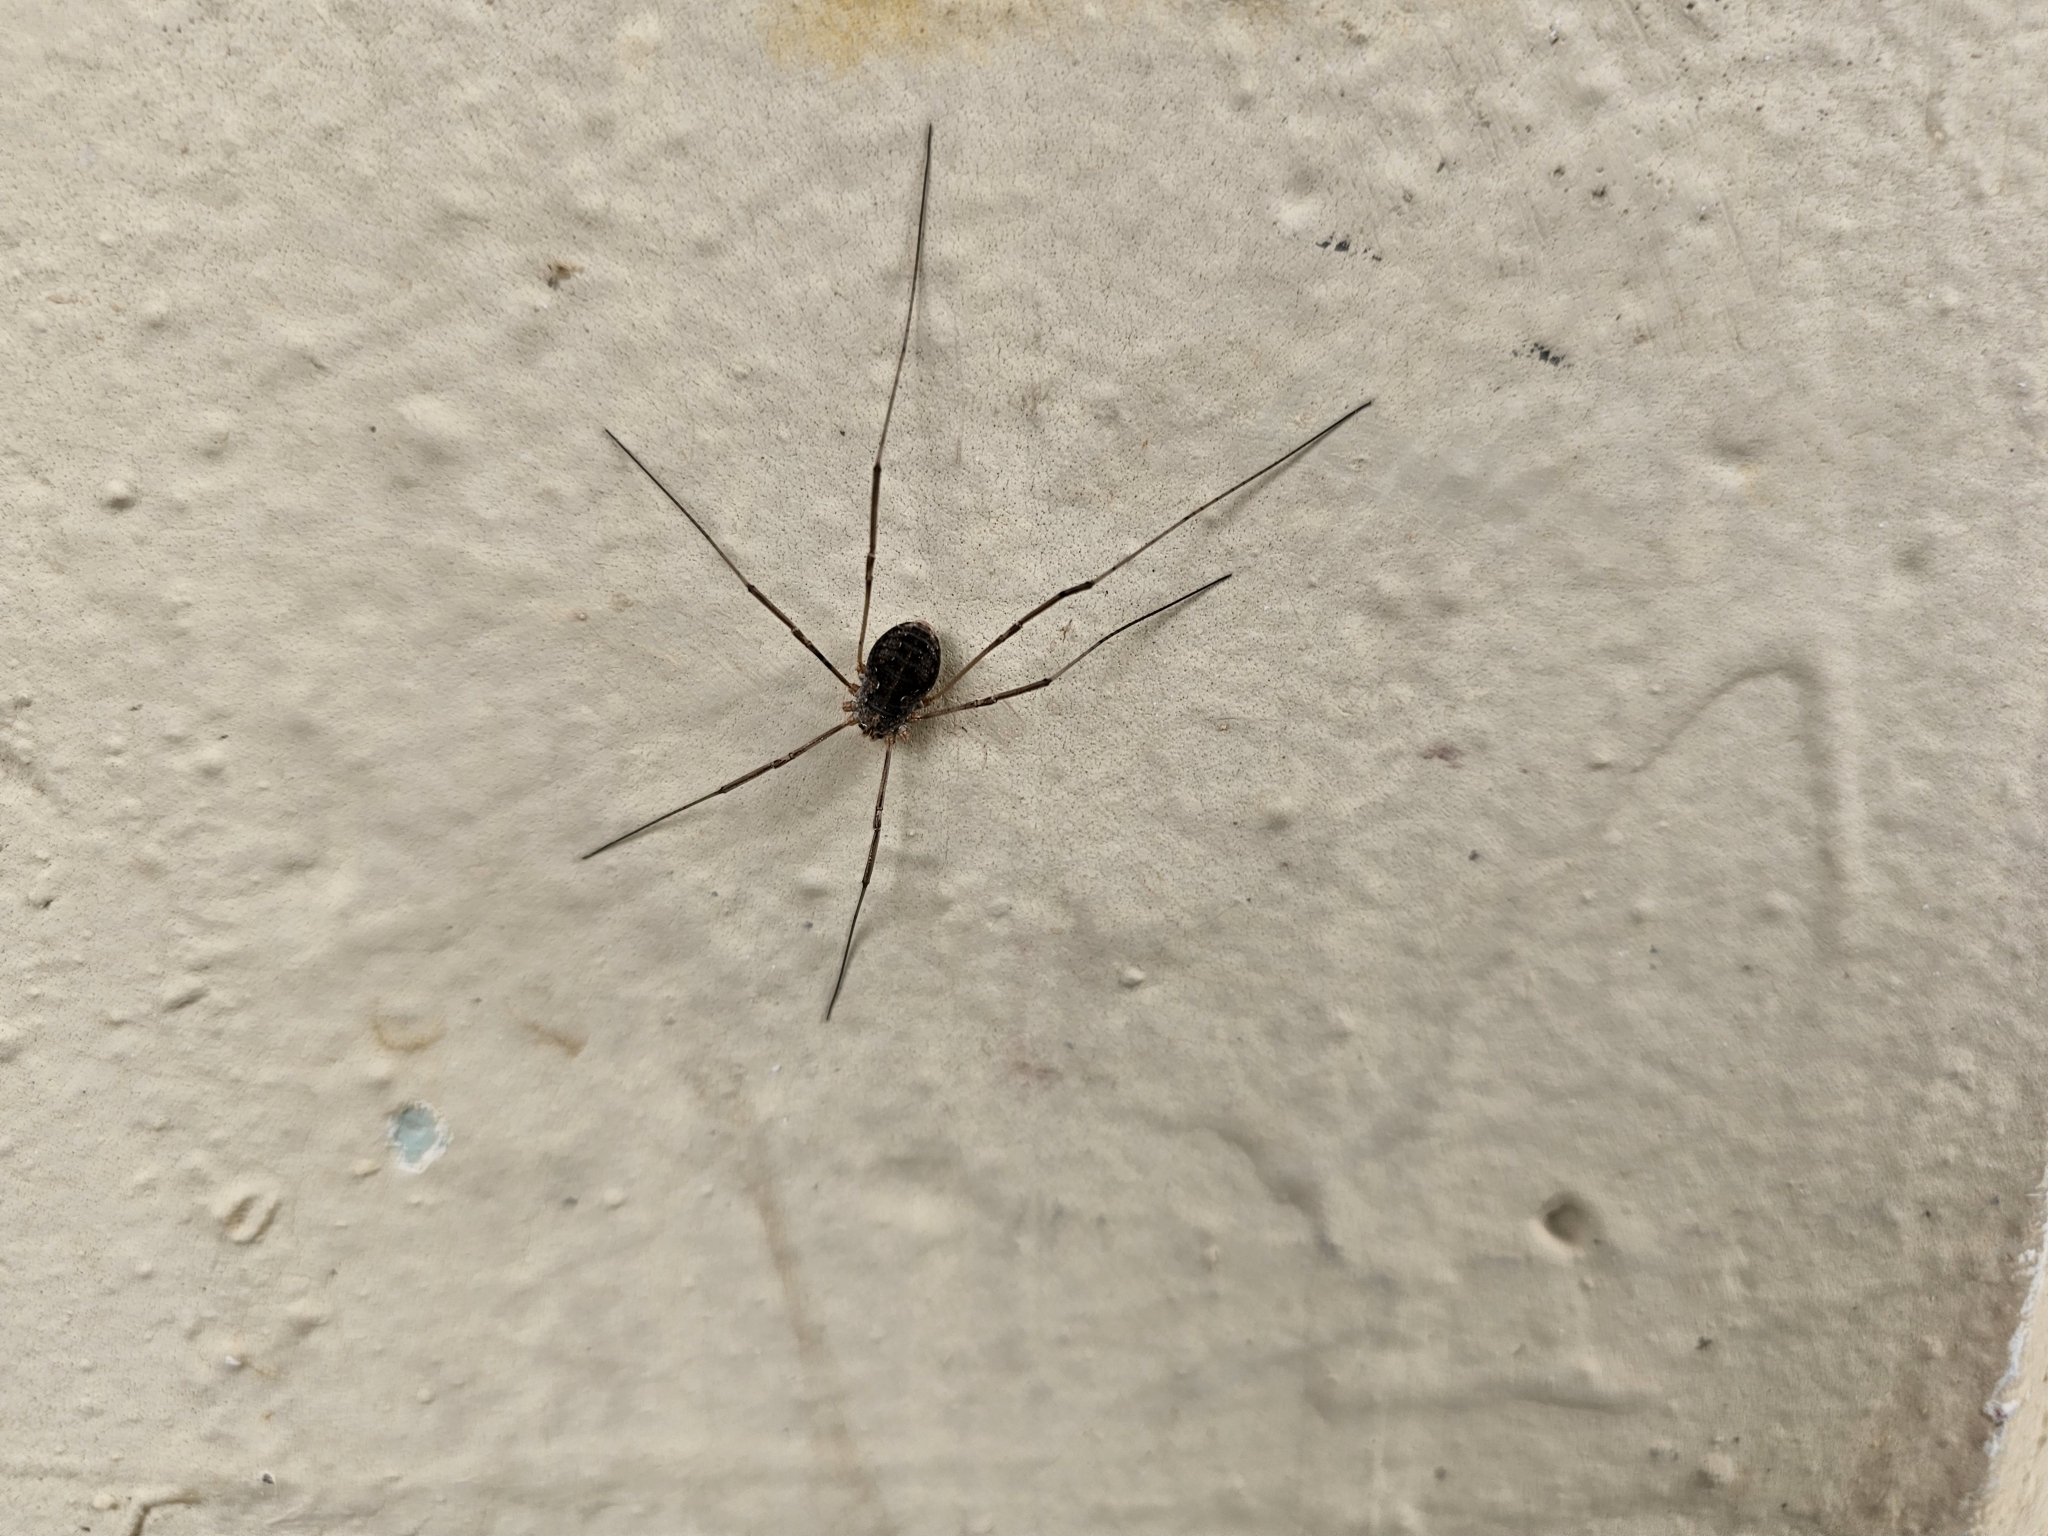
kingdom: Animalia
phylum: Arthropoda
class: Arachnida
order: Opiliones
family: Phalangiidae
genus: Phalangium
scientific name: Phalangium opilio
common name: Daddy longleg
